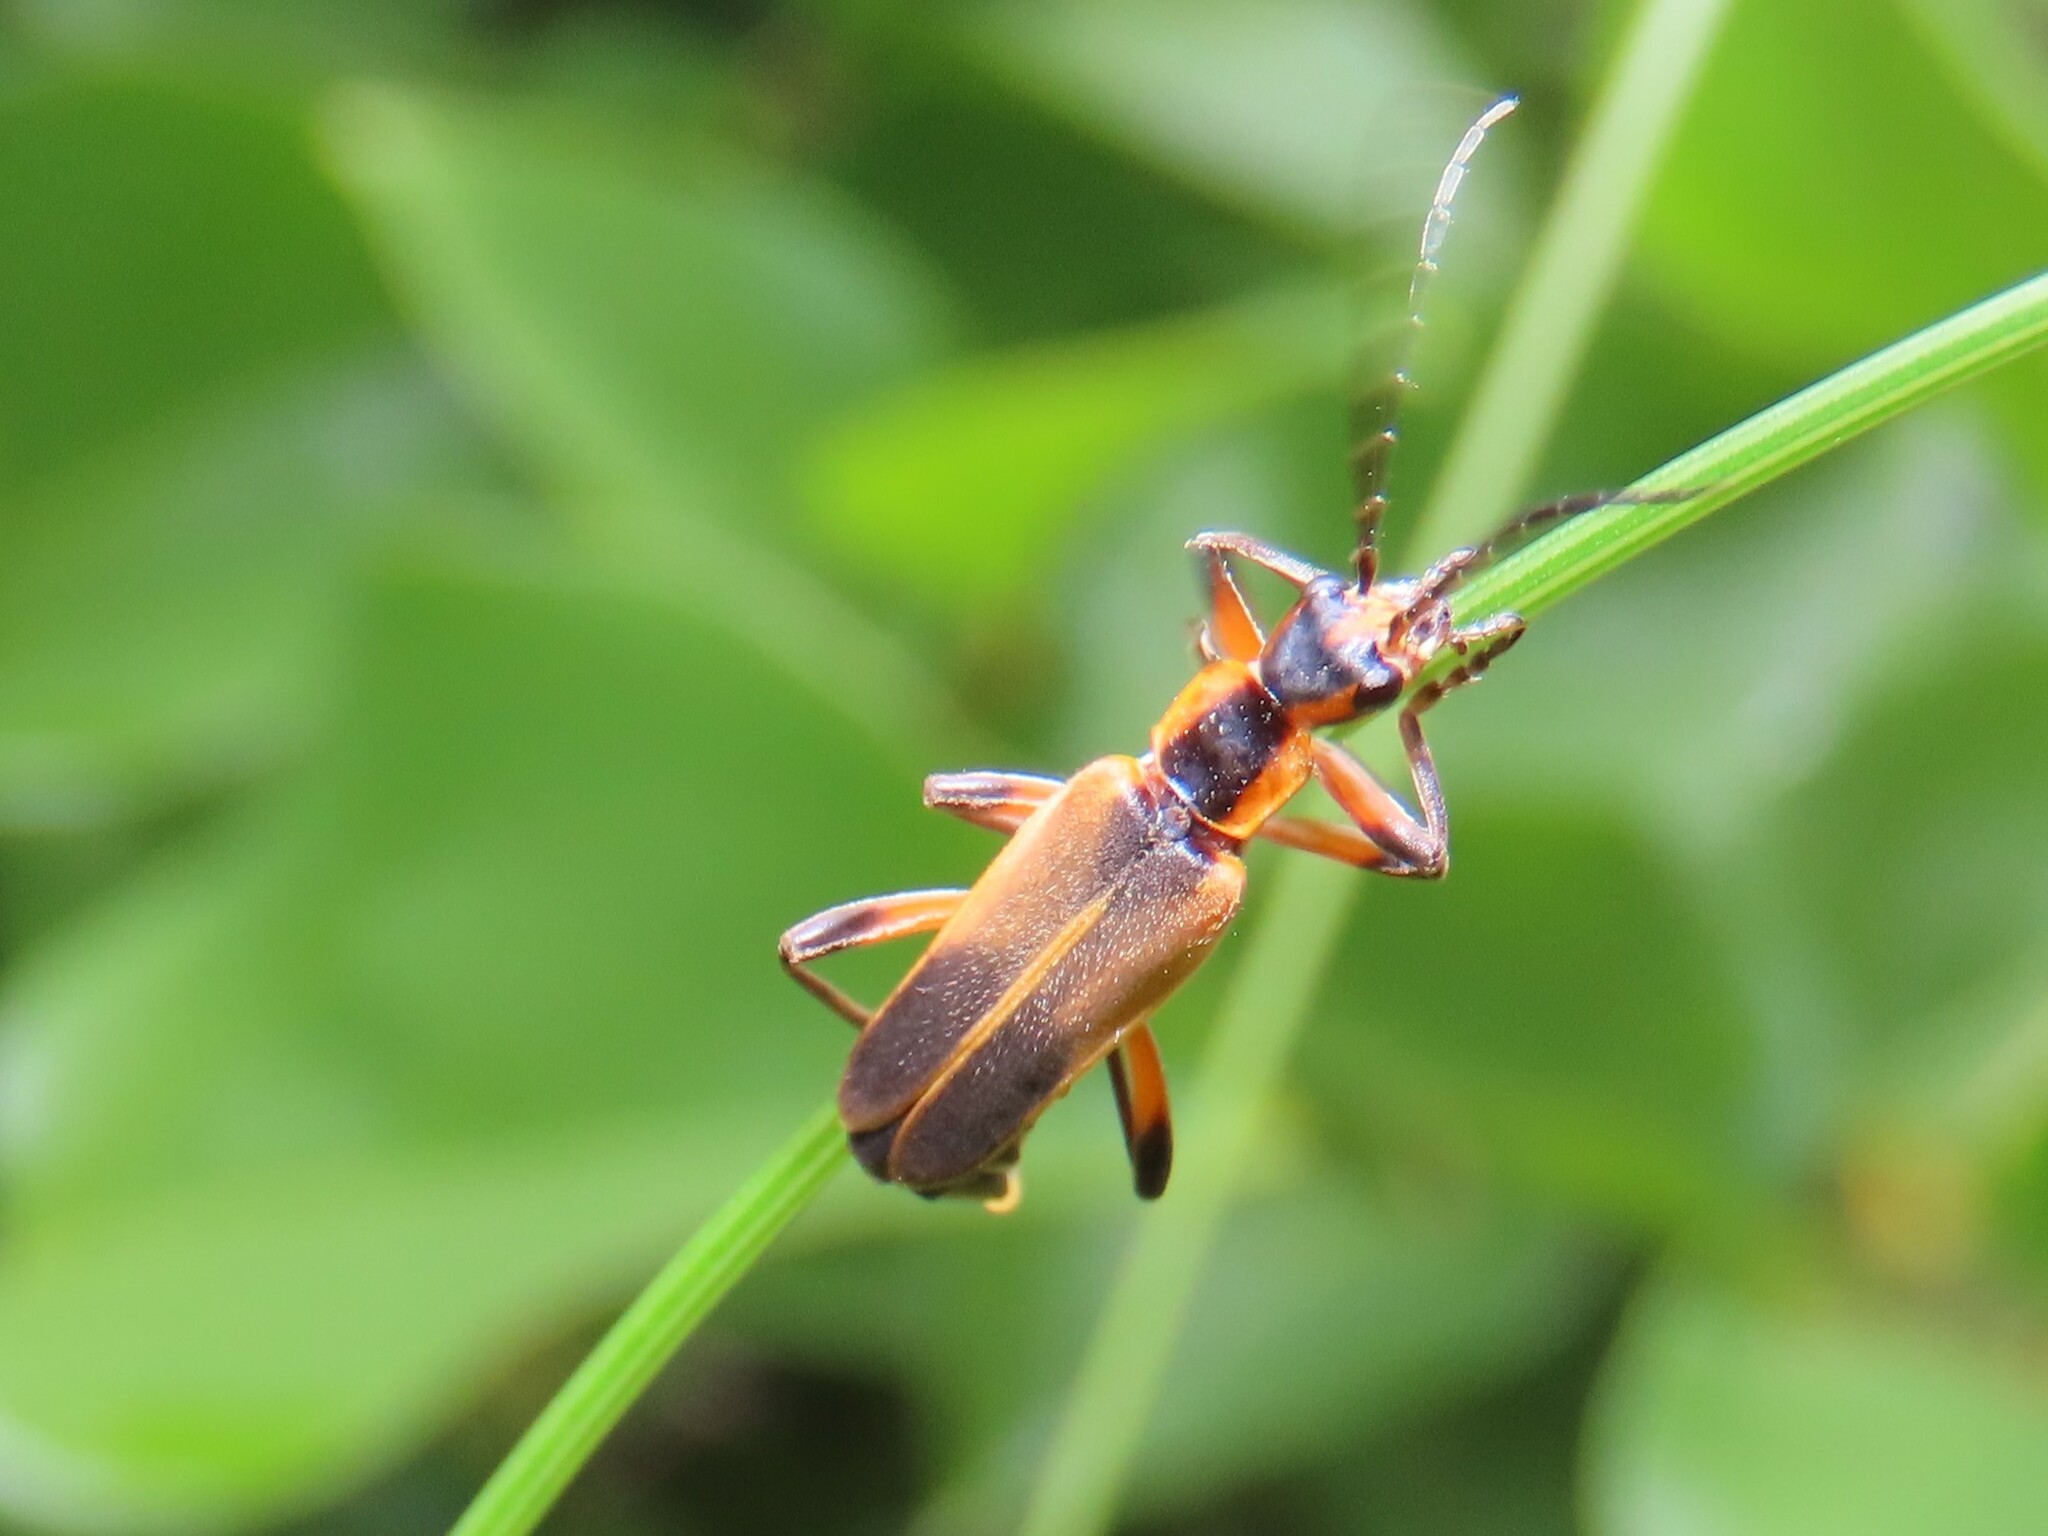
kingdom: Animalia
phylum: Arthropoda
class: Insecta
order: Coleoptera
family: Cantharidae
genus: Chauliognathus
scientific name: Chauliognathus marginatus
